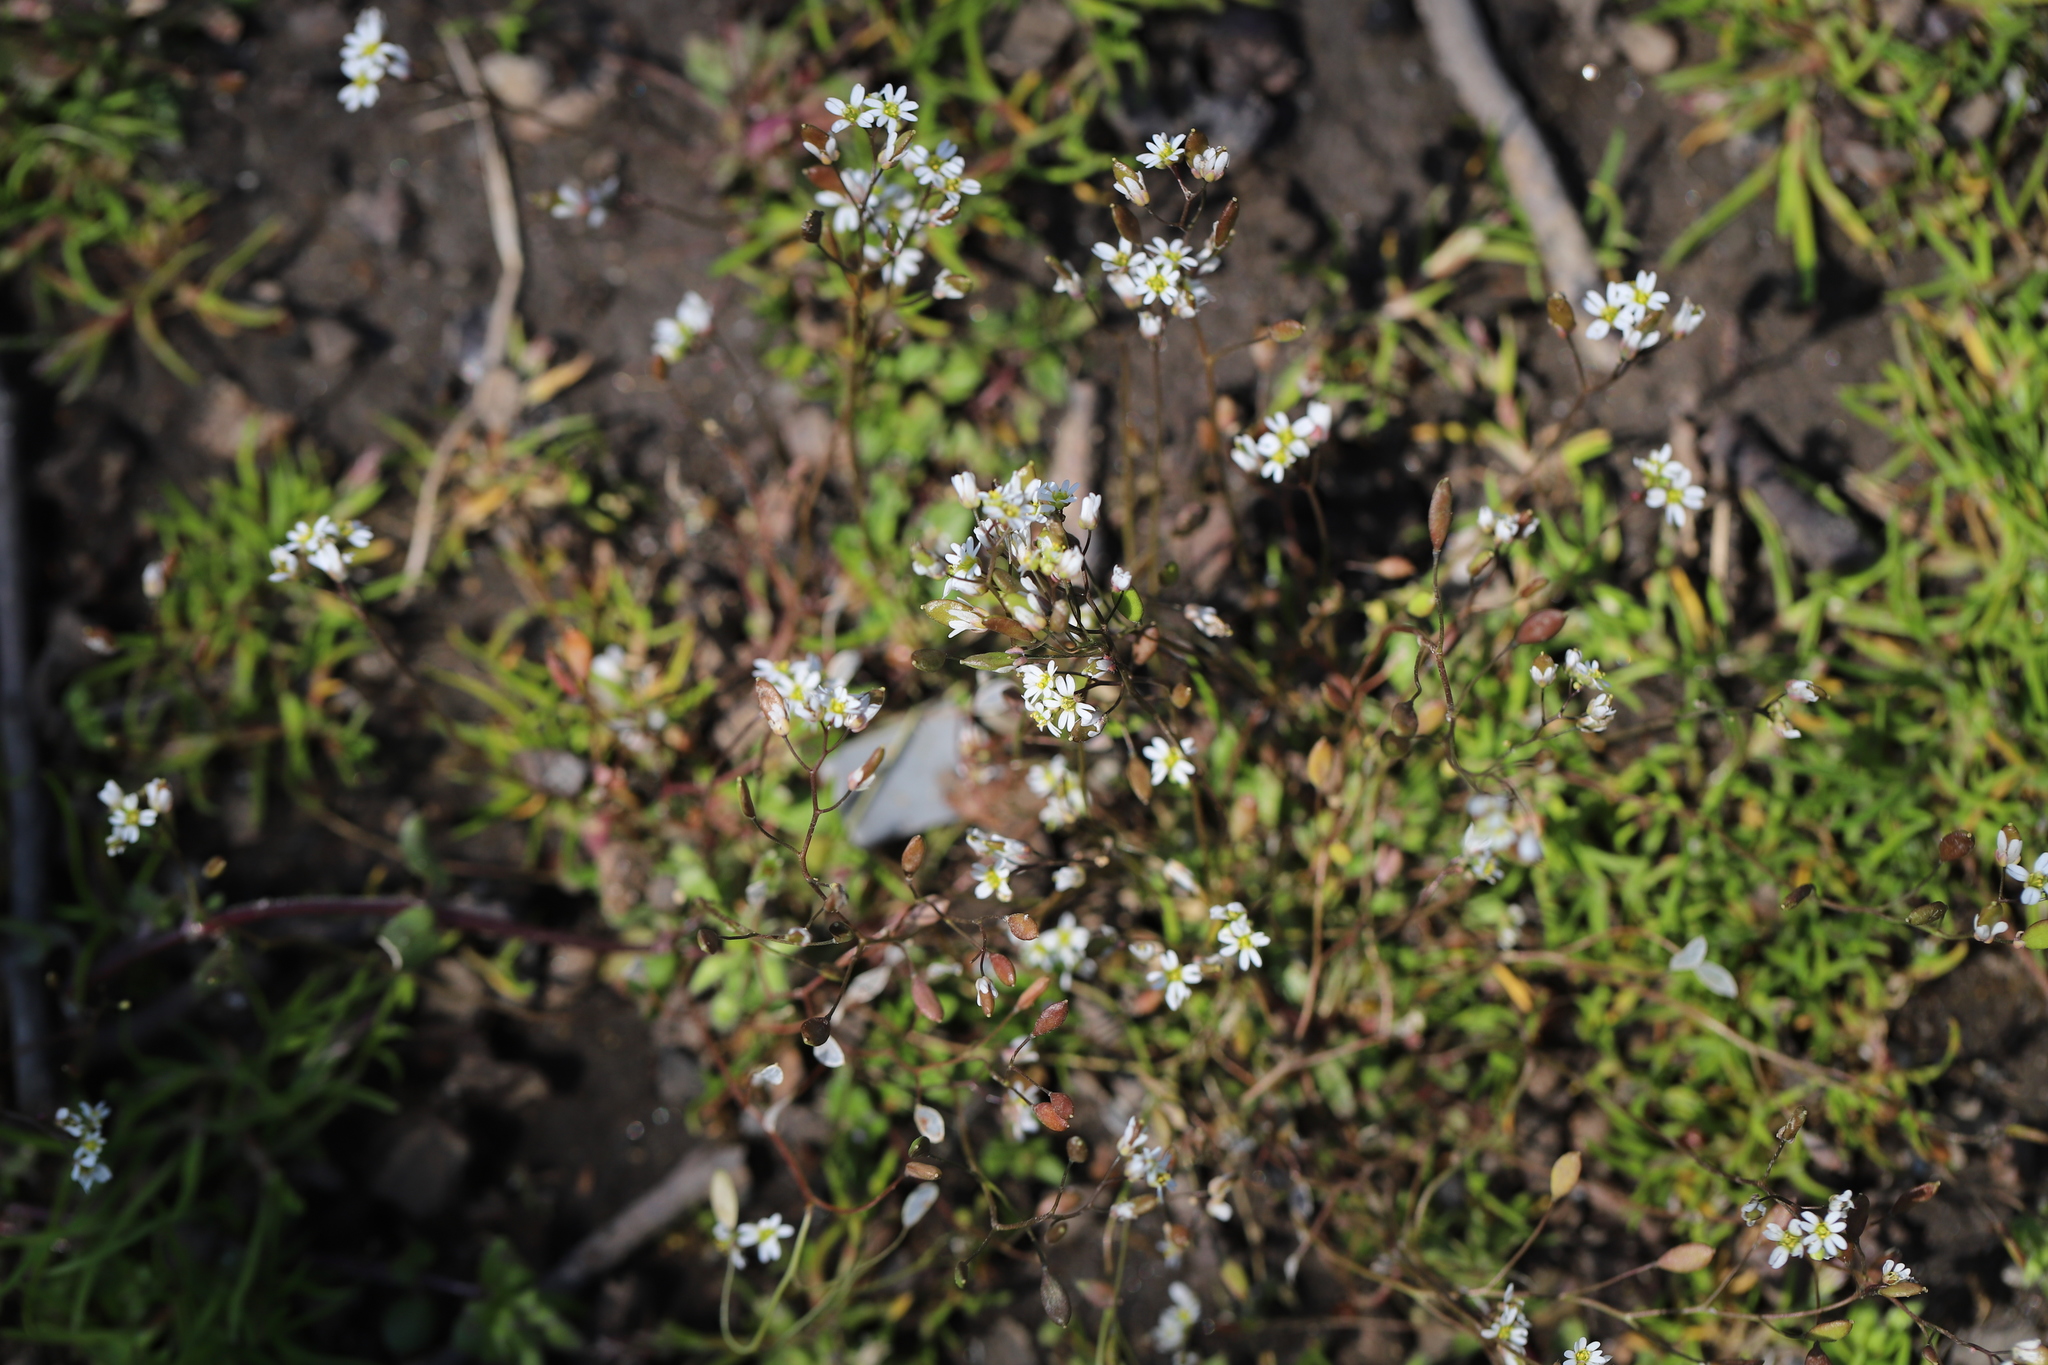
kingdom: Plantae
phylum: Tracheophyta
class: Magnoliopsida
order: Brassicales
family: Brassicaceae
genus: Draba
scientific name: Draba verna
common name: Spring draba
